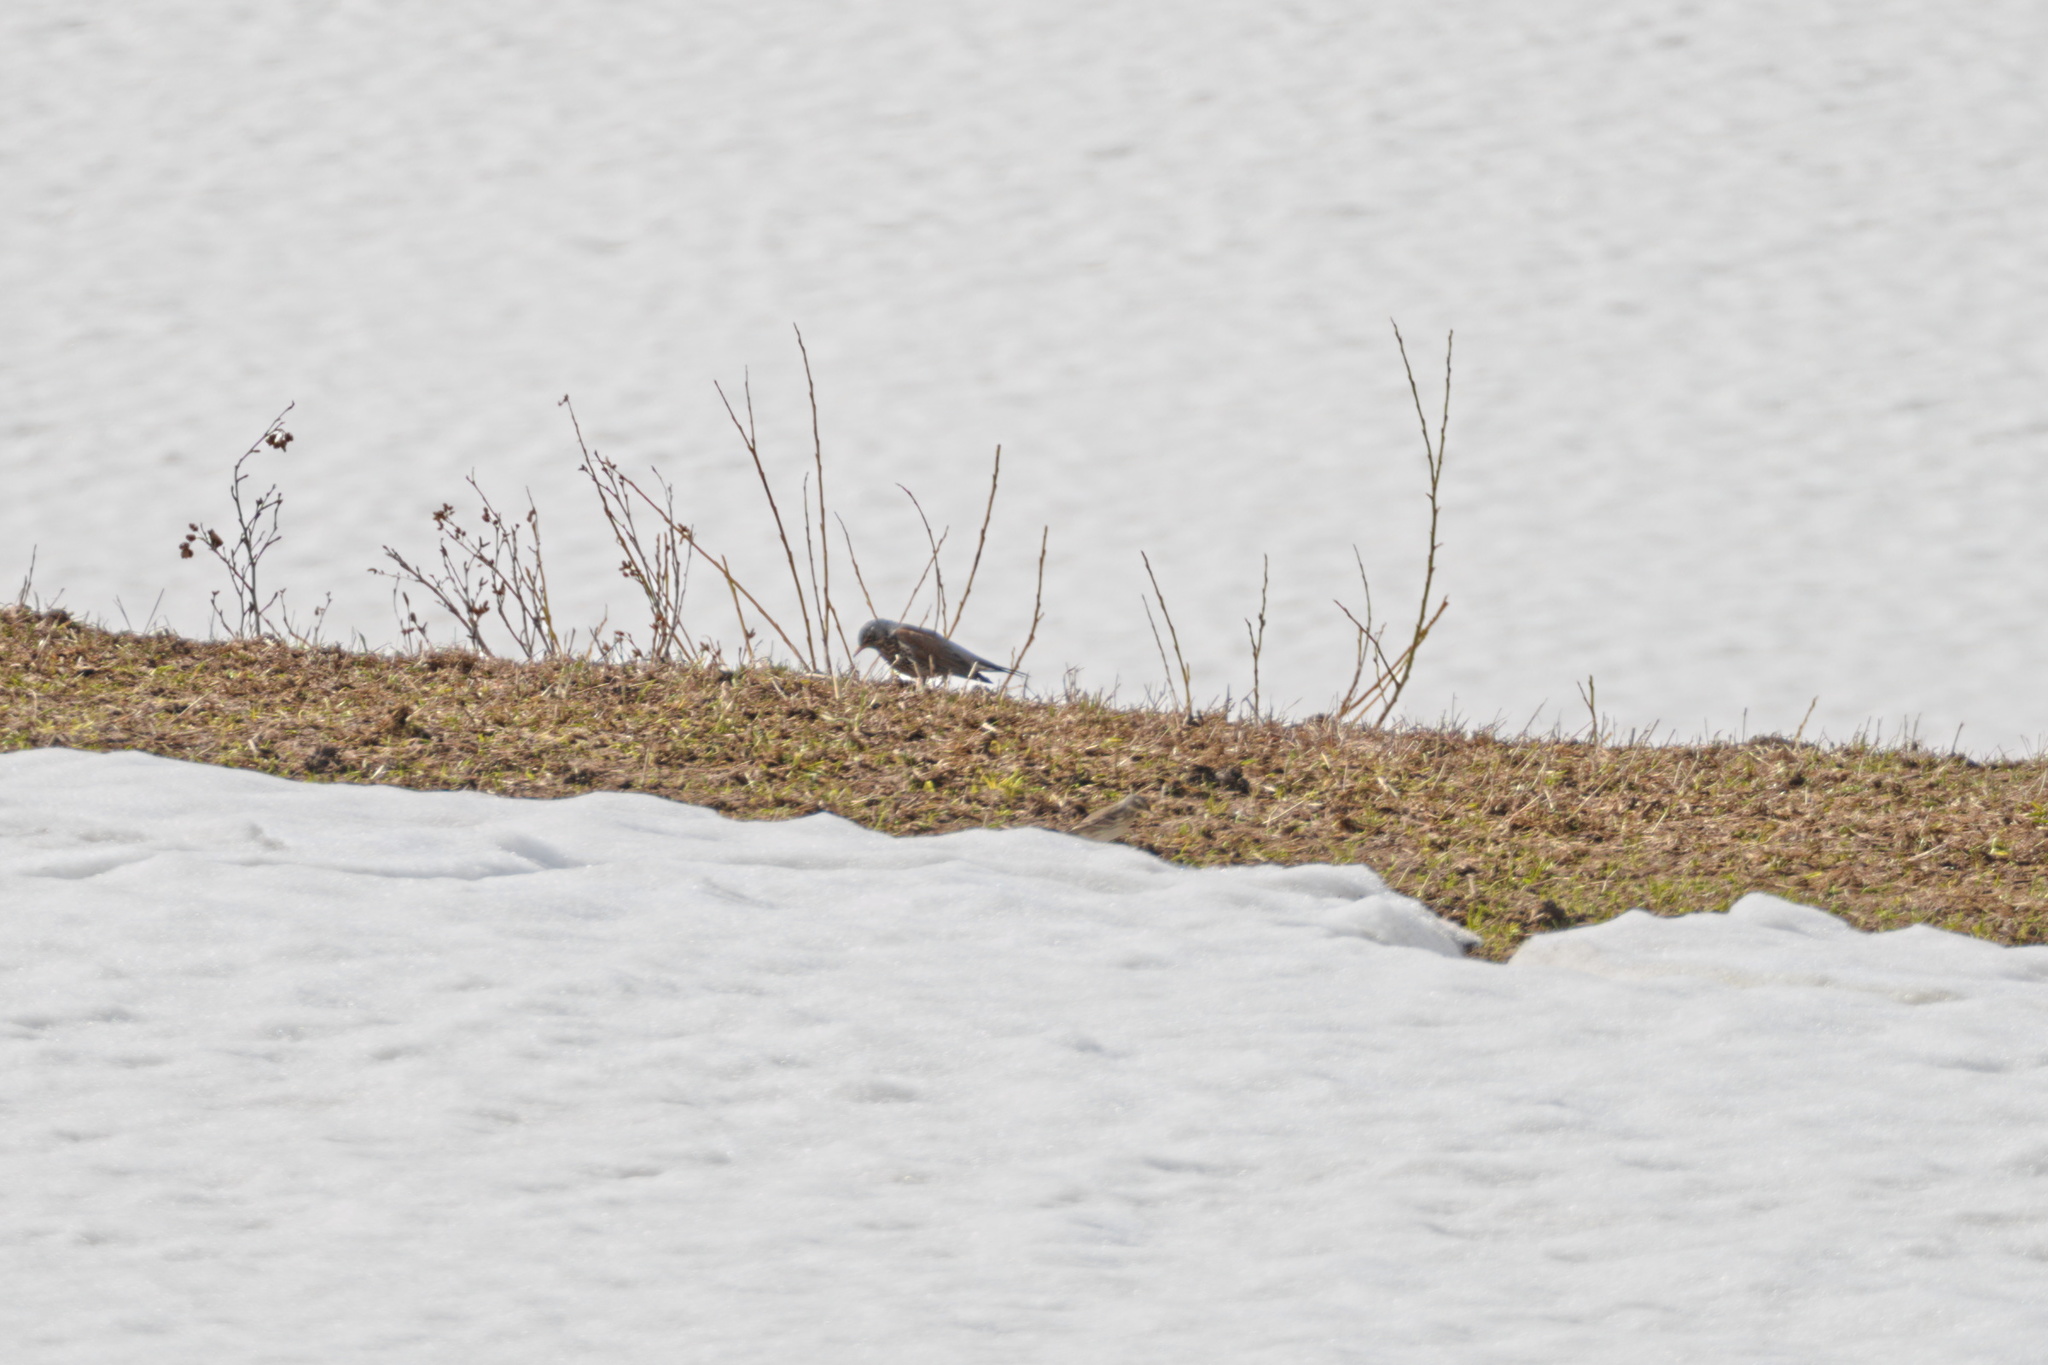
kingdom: Animalia
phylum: Chordata
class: Aves
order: Passeriformes
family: Turdidae
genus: Turdus
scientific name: Turdus pilaris
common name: Fieldfare
